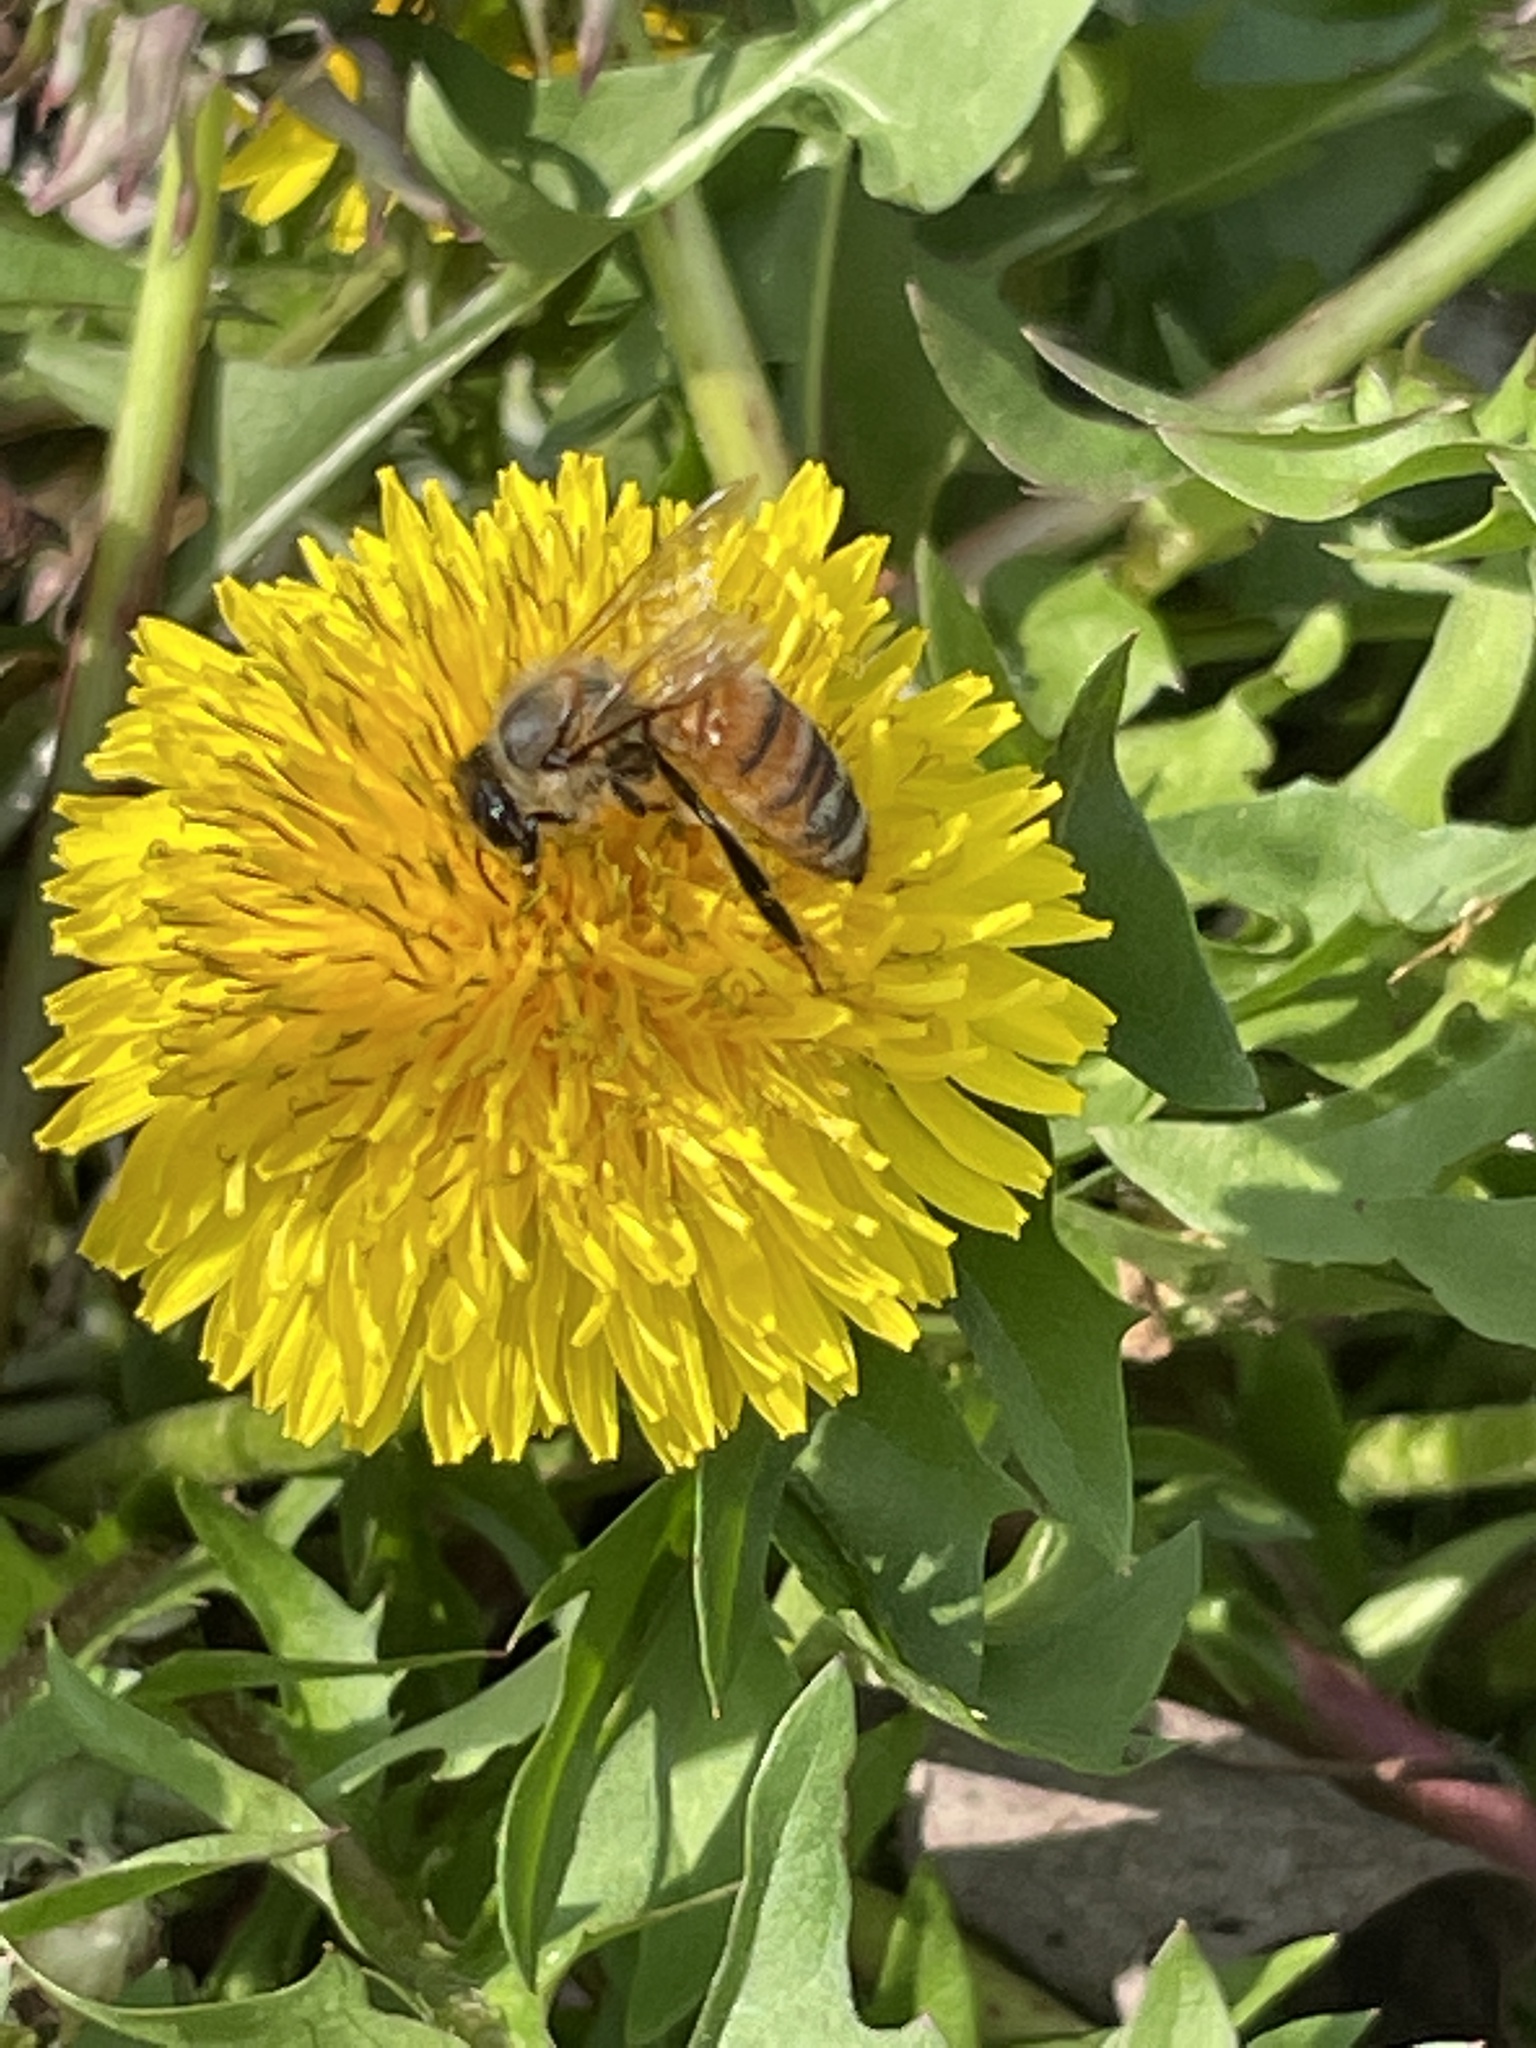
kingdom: Animalia
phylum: Arthropoda
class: Insecta
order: Hymenoptera
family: Apidae
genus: Apis
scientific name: Apis mellifera
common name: Honey bee
